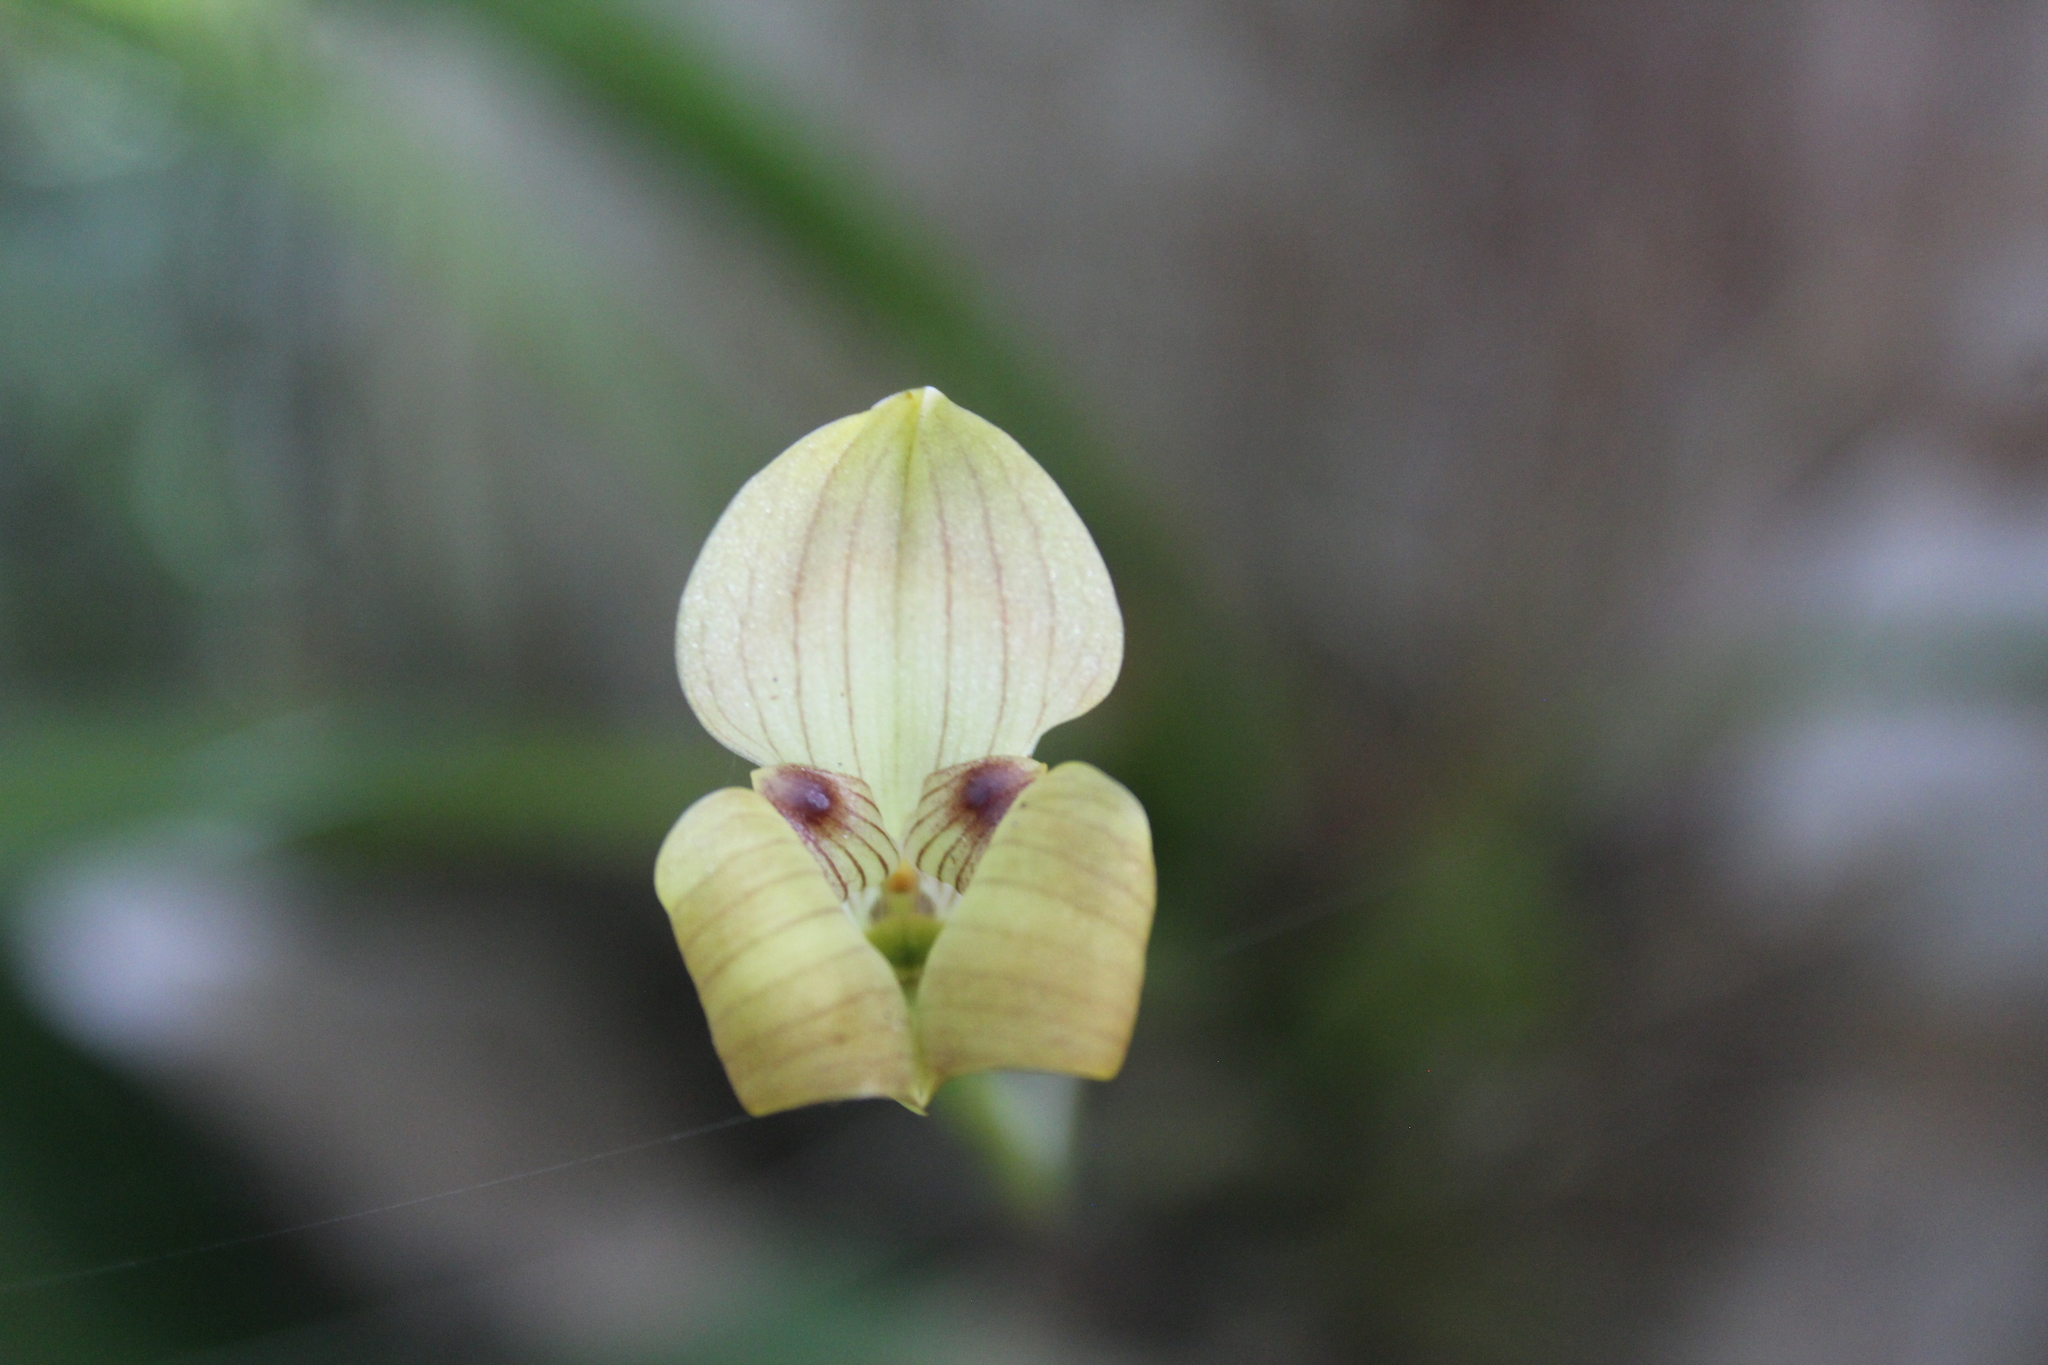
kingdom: Plantae
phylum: Tracheophyta
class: Liliopsida
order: Asparagales
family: Orchidaceae
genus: Maxillaria
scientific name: Maxillaria egertoniana
